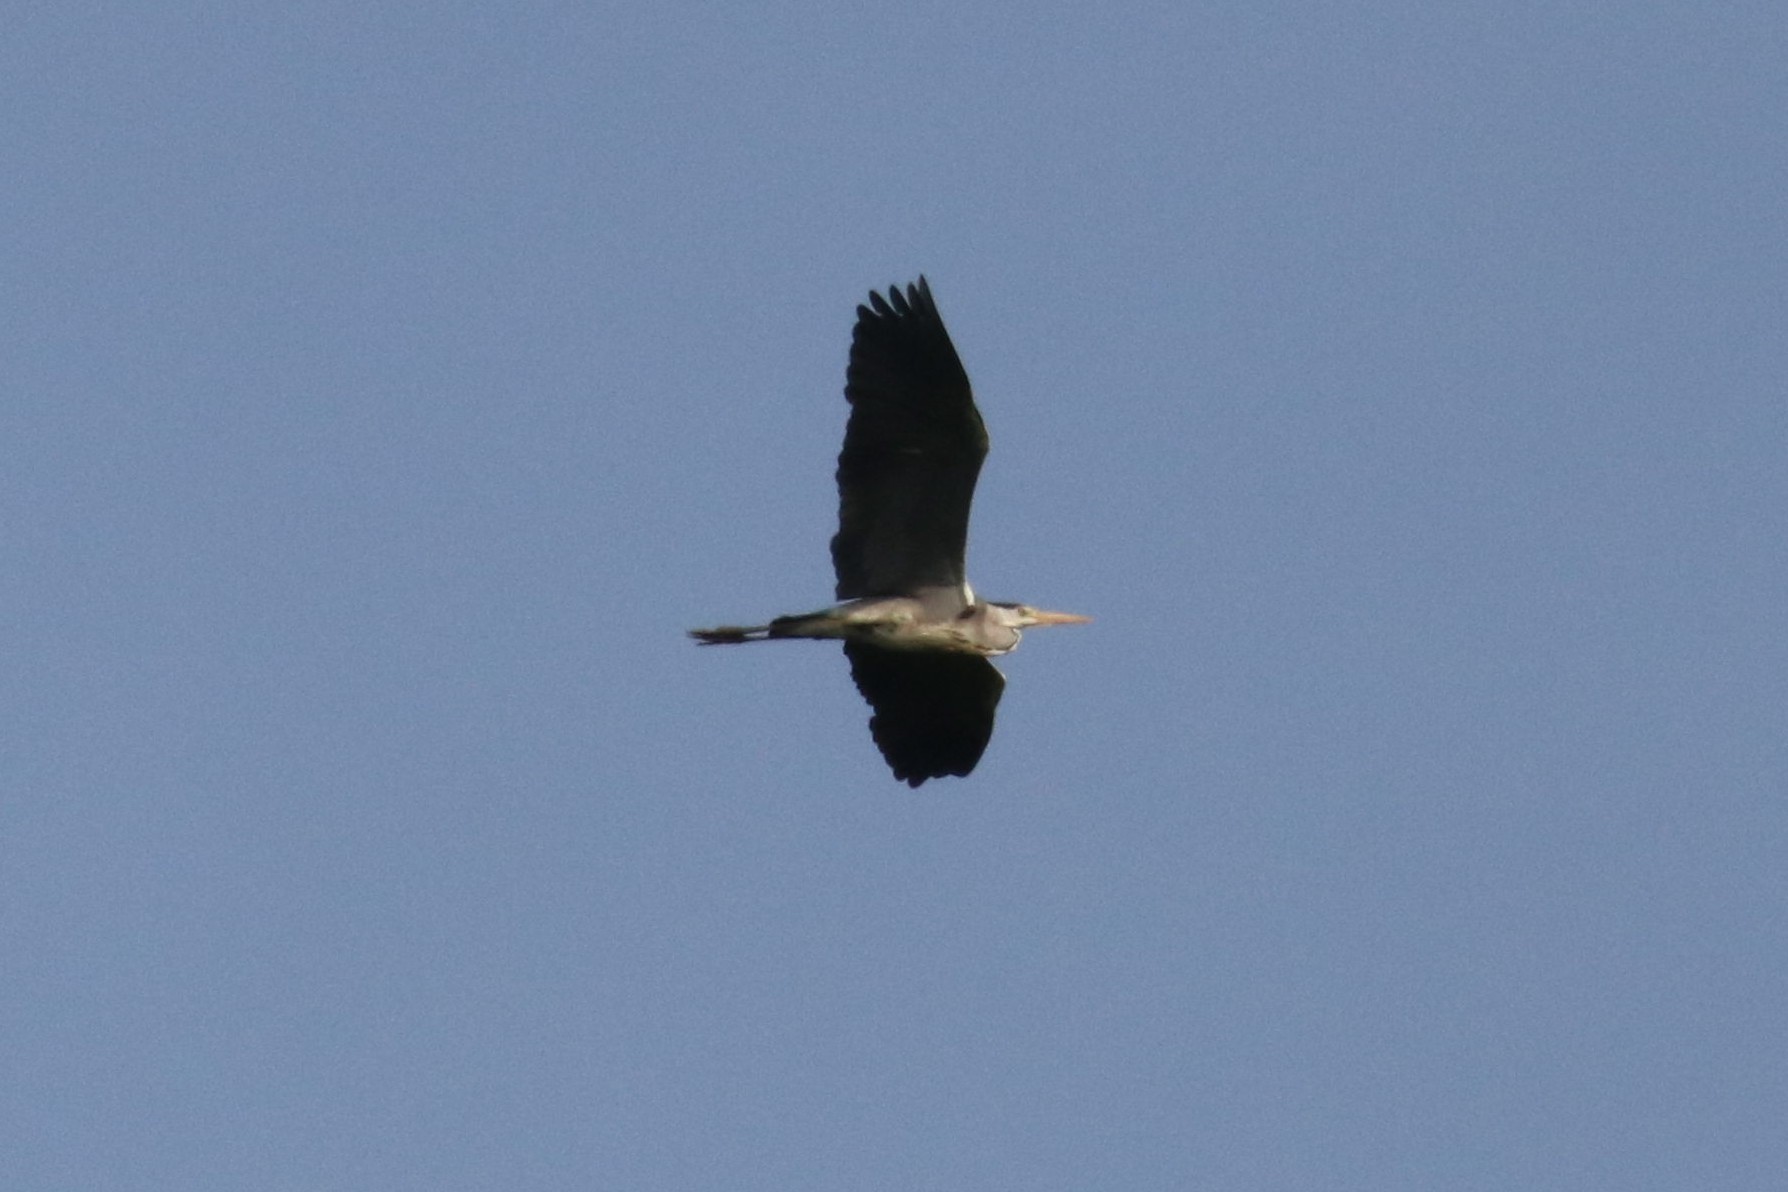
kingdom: Animalia
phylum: Chordata
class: Aves
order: Pelecaniformes
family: Ardeidae
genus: Ardea
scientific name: Ardea cinerea
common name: Grey heron
